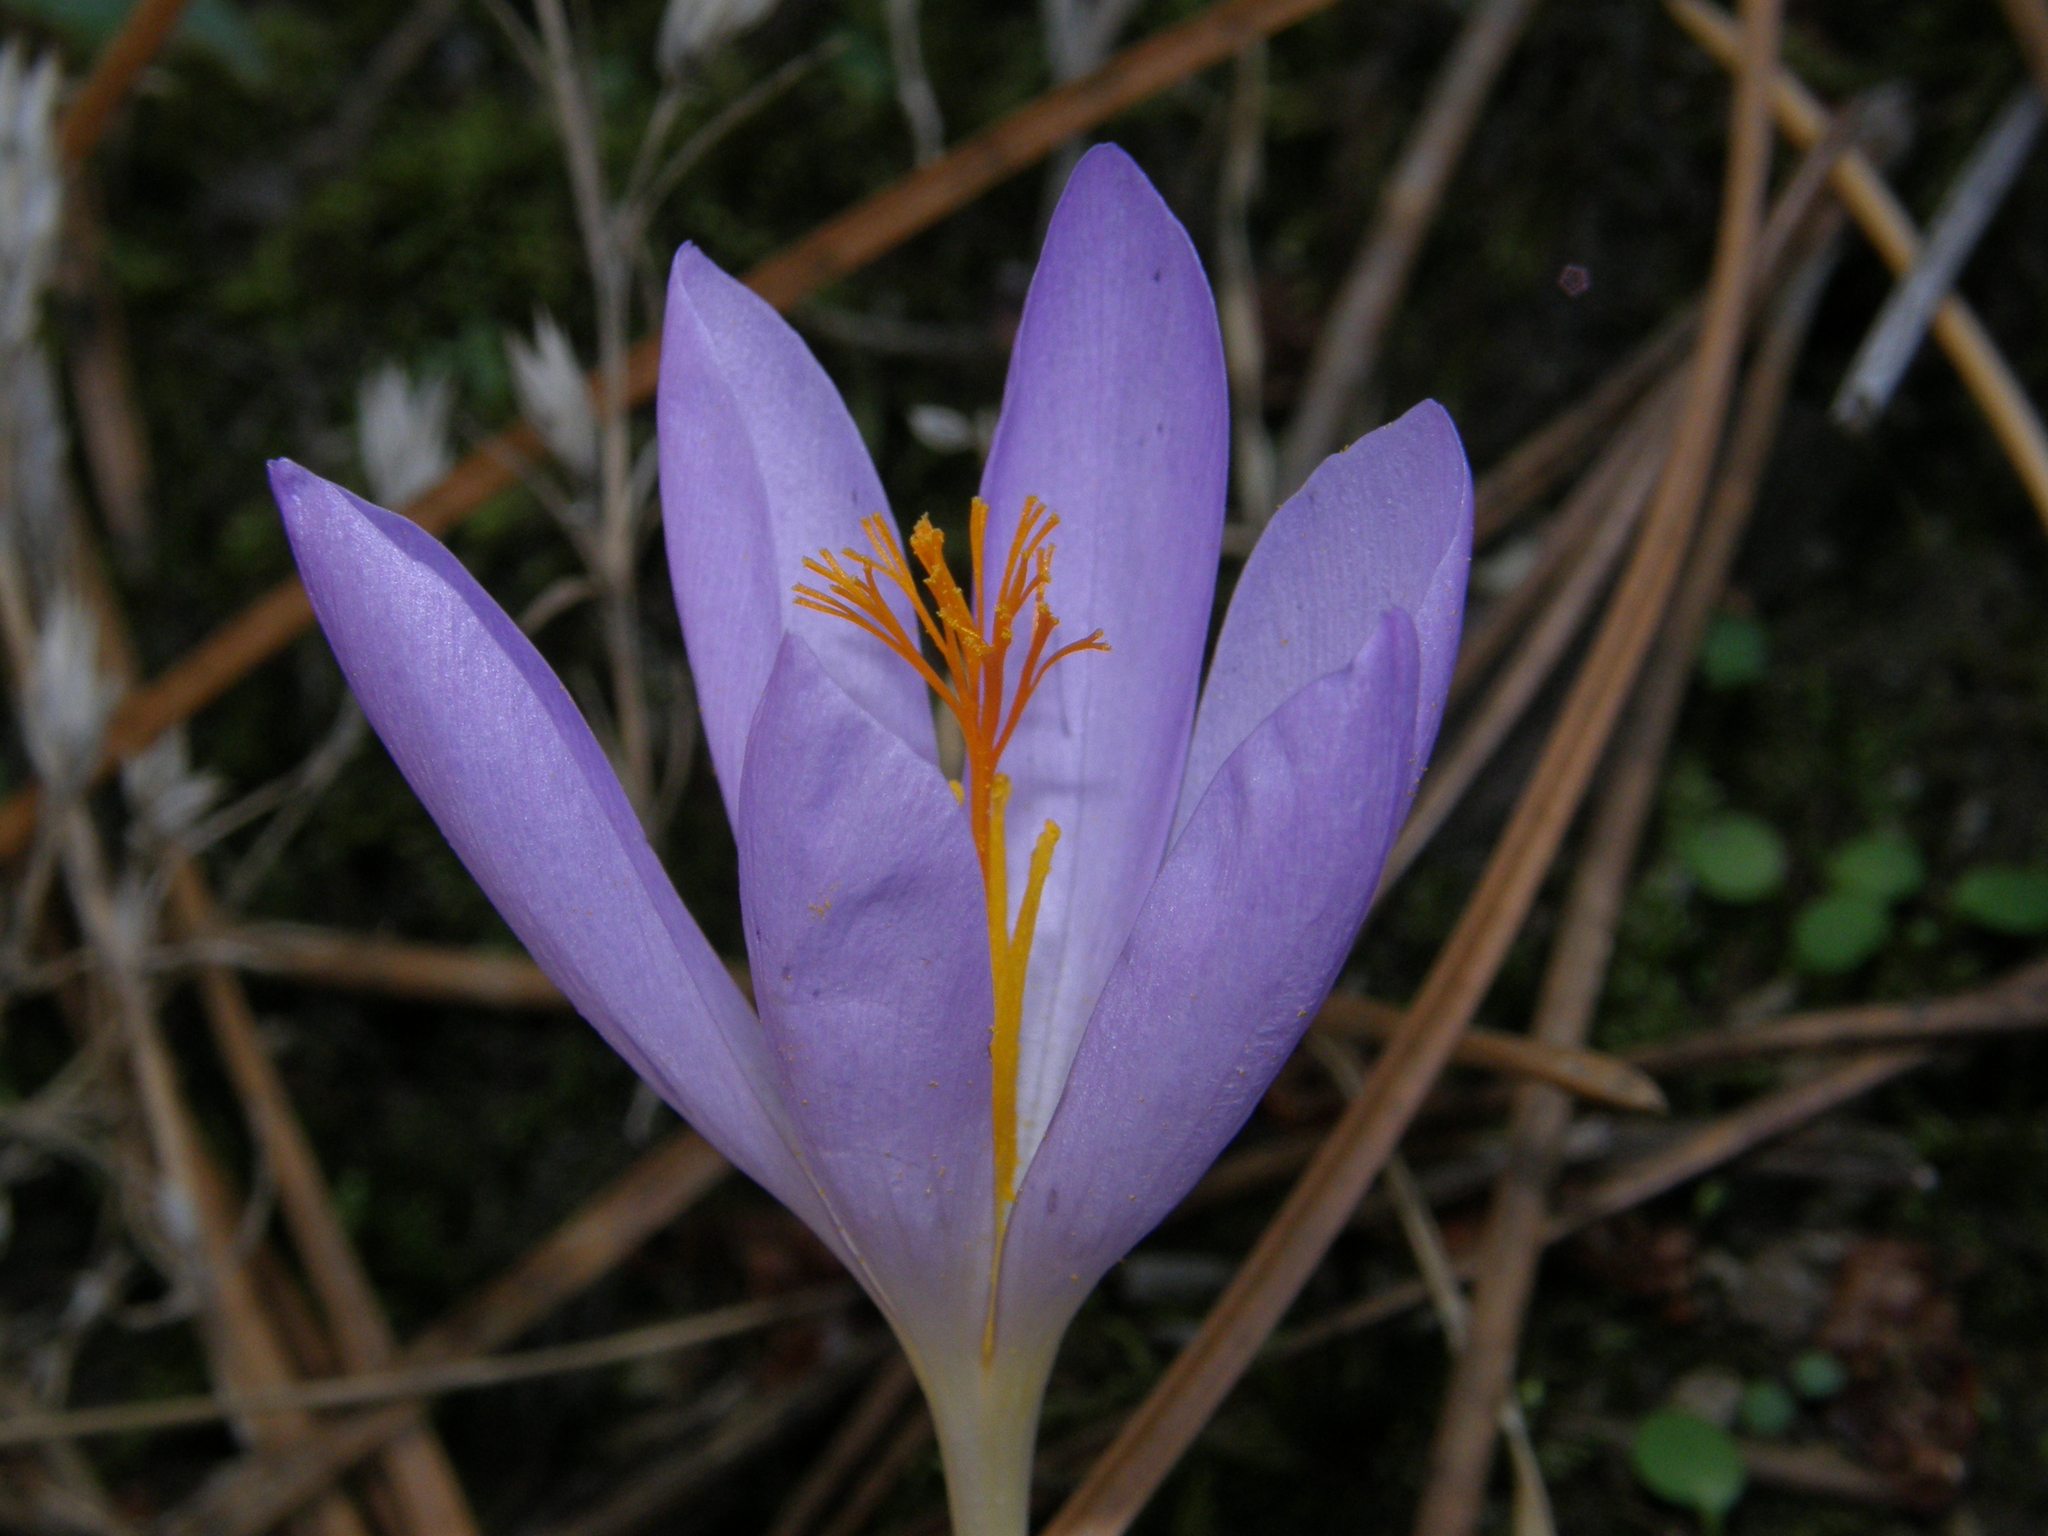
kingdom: Plantae
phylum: Tracheophyta
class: Liliopsida
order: Asparagales
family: Iridaceae
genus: Crocus
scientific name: Crocus serotinus
